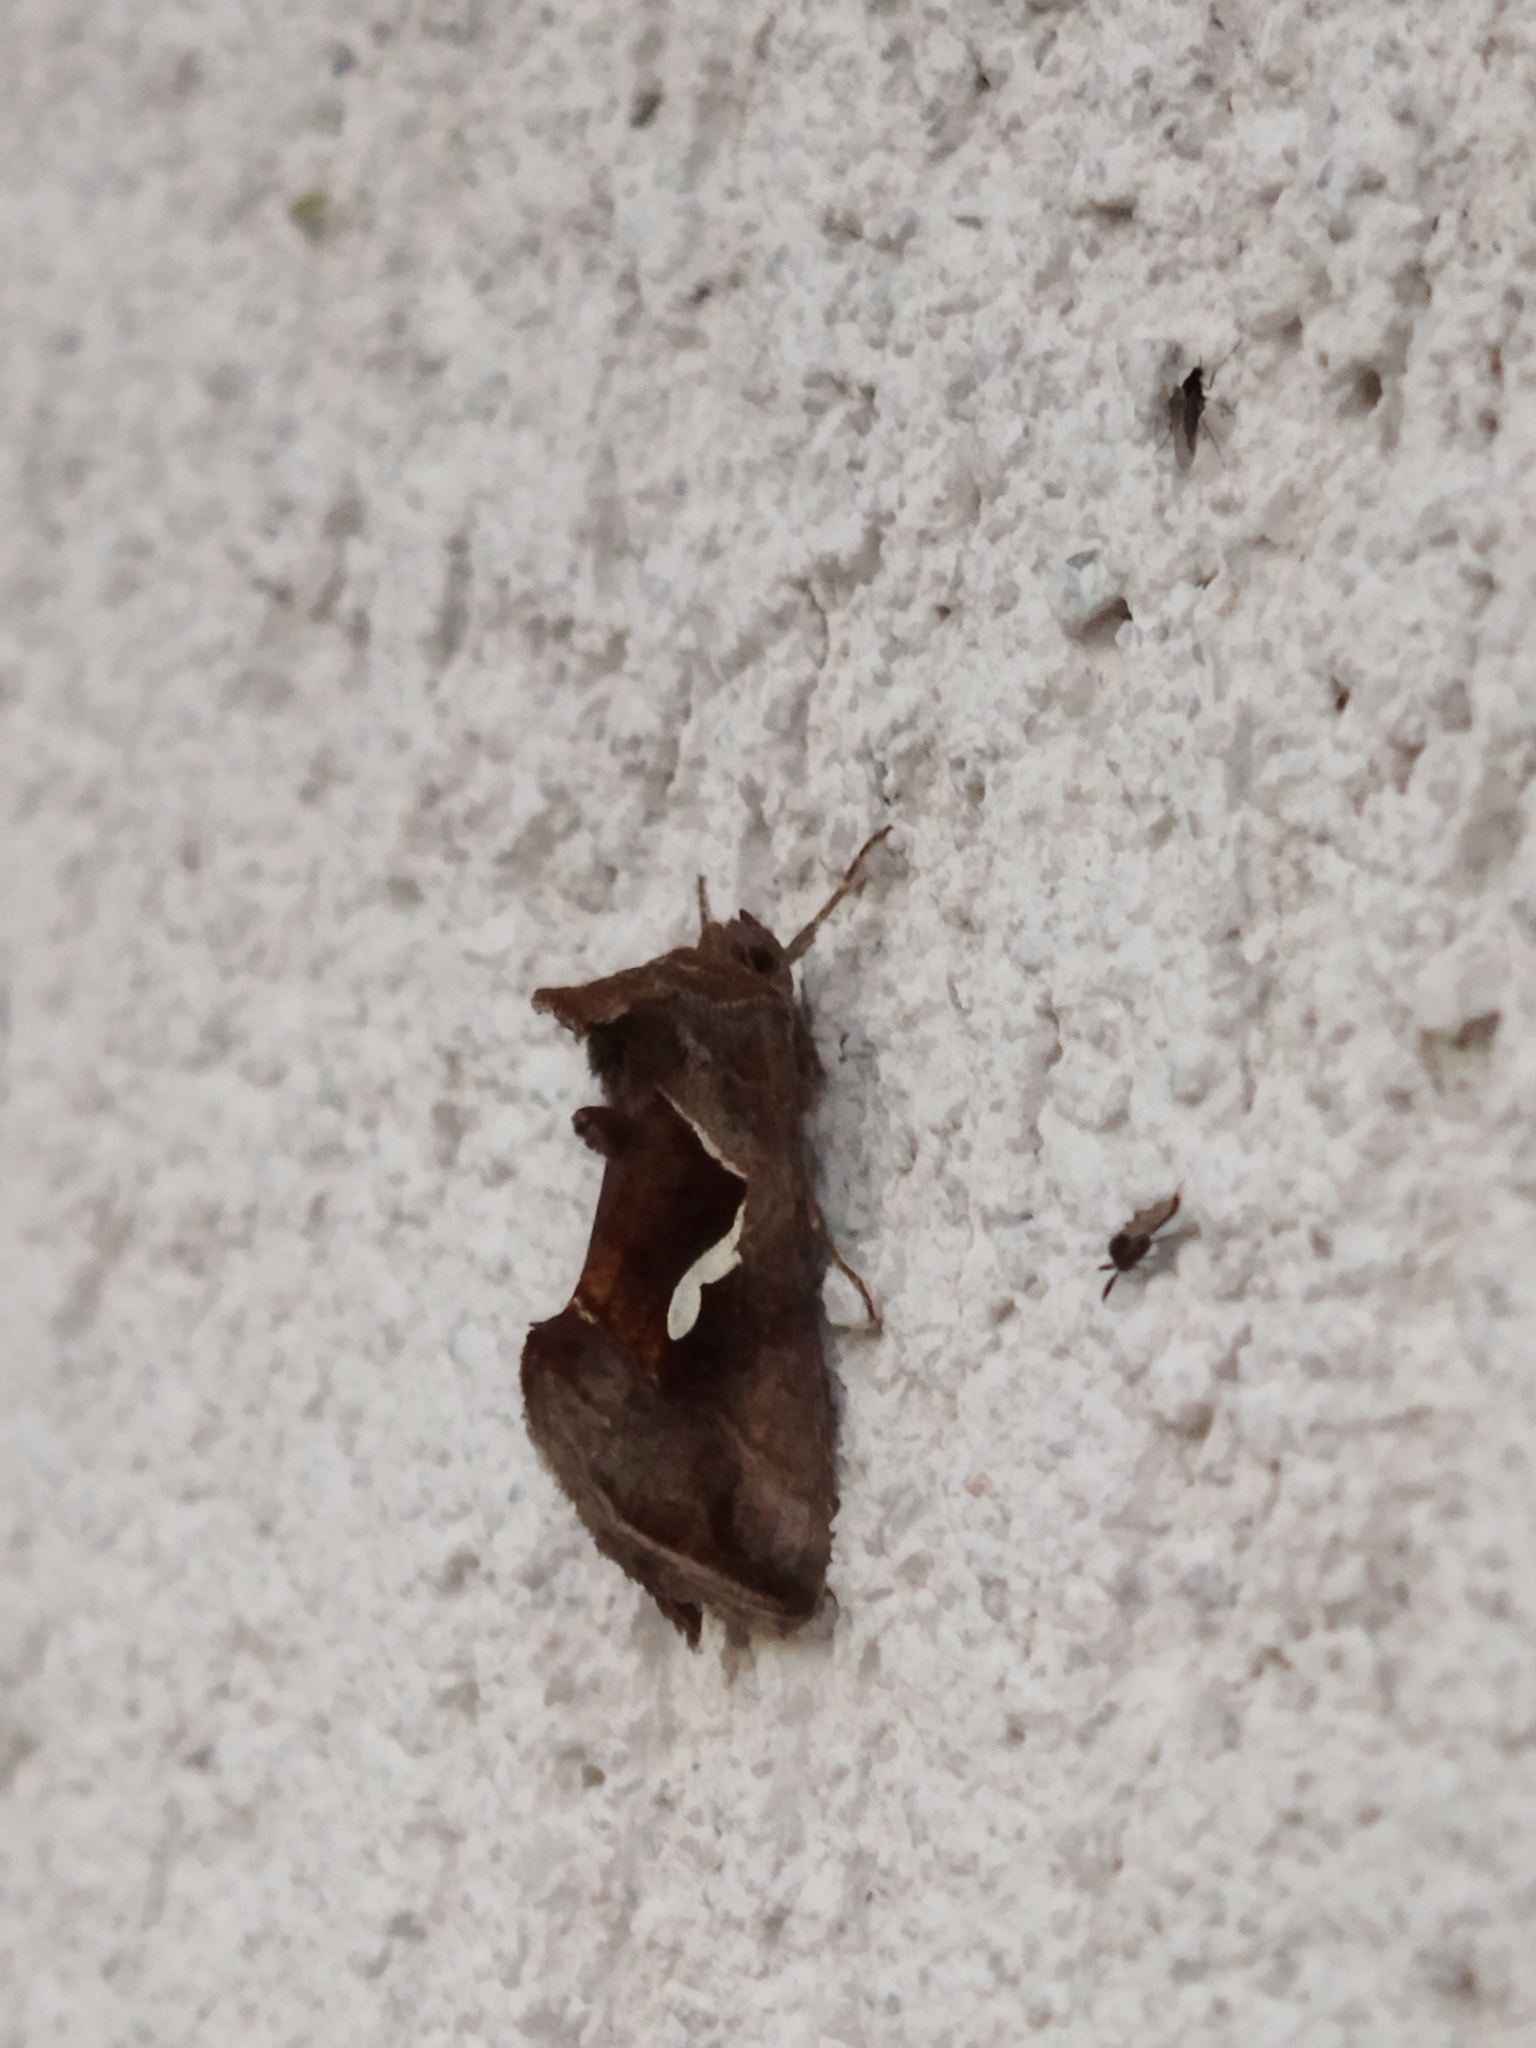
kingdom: Animalia
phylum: Arthropoda
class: Insecta
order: Lepidoptera
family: Noctuidae
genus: Macdunnoughia
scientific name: Macdunnoughia confusa
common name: Dewick's plusia
